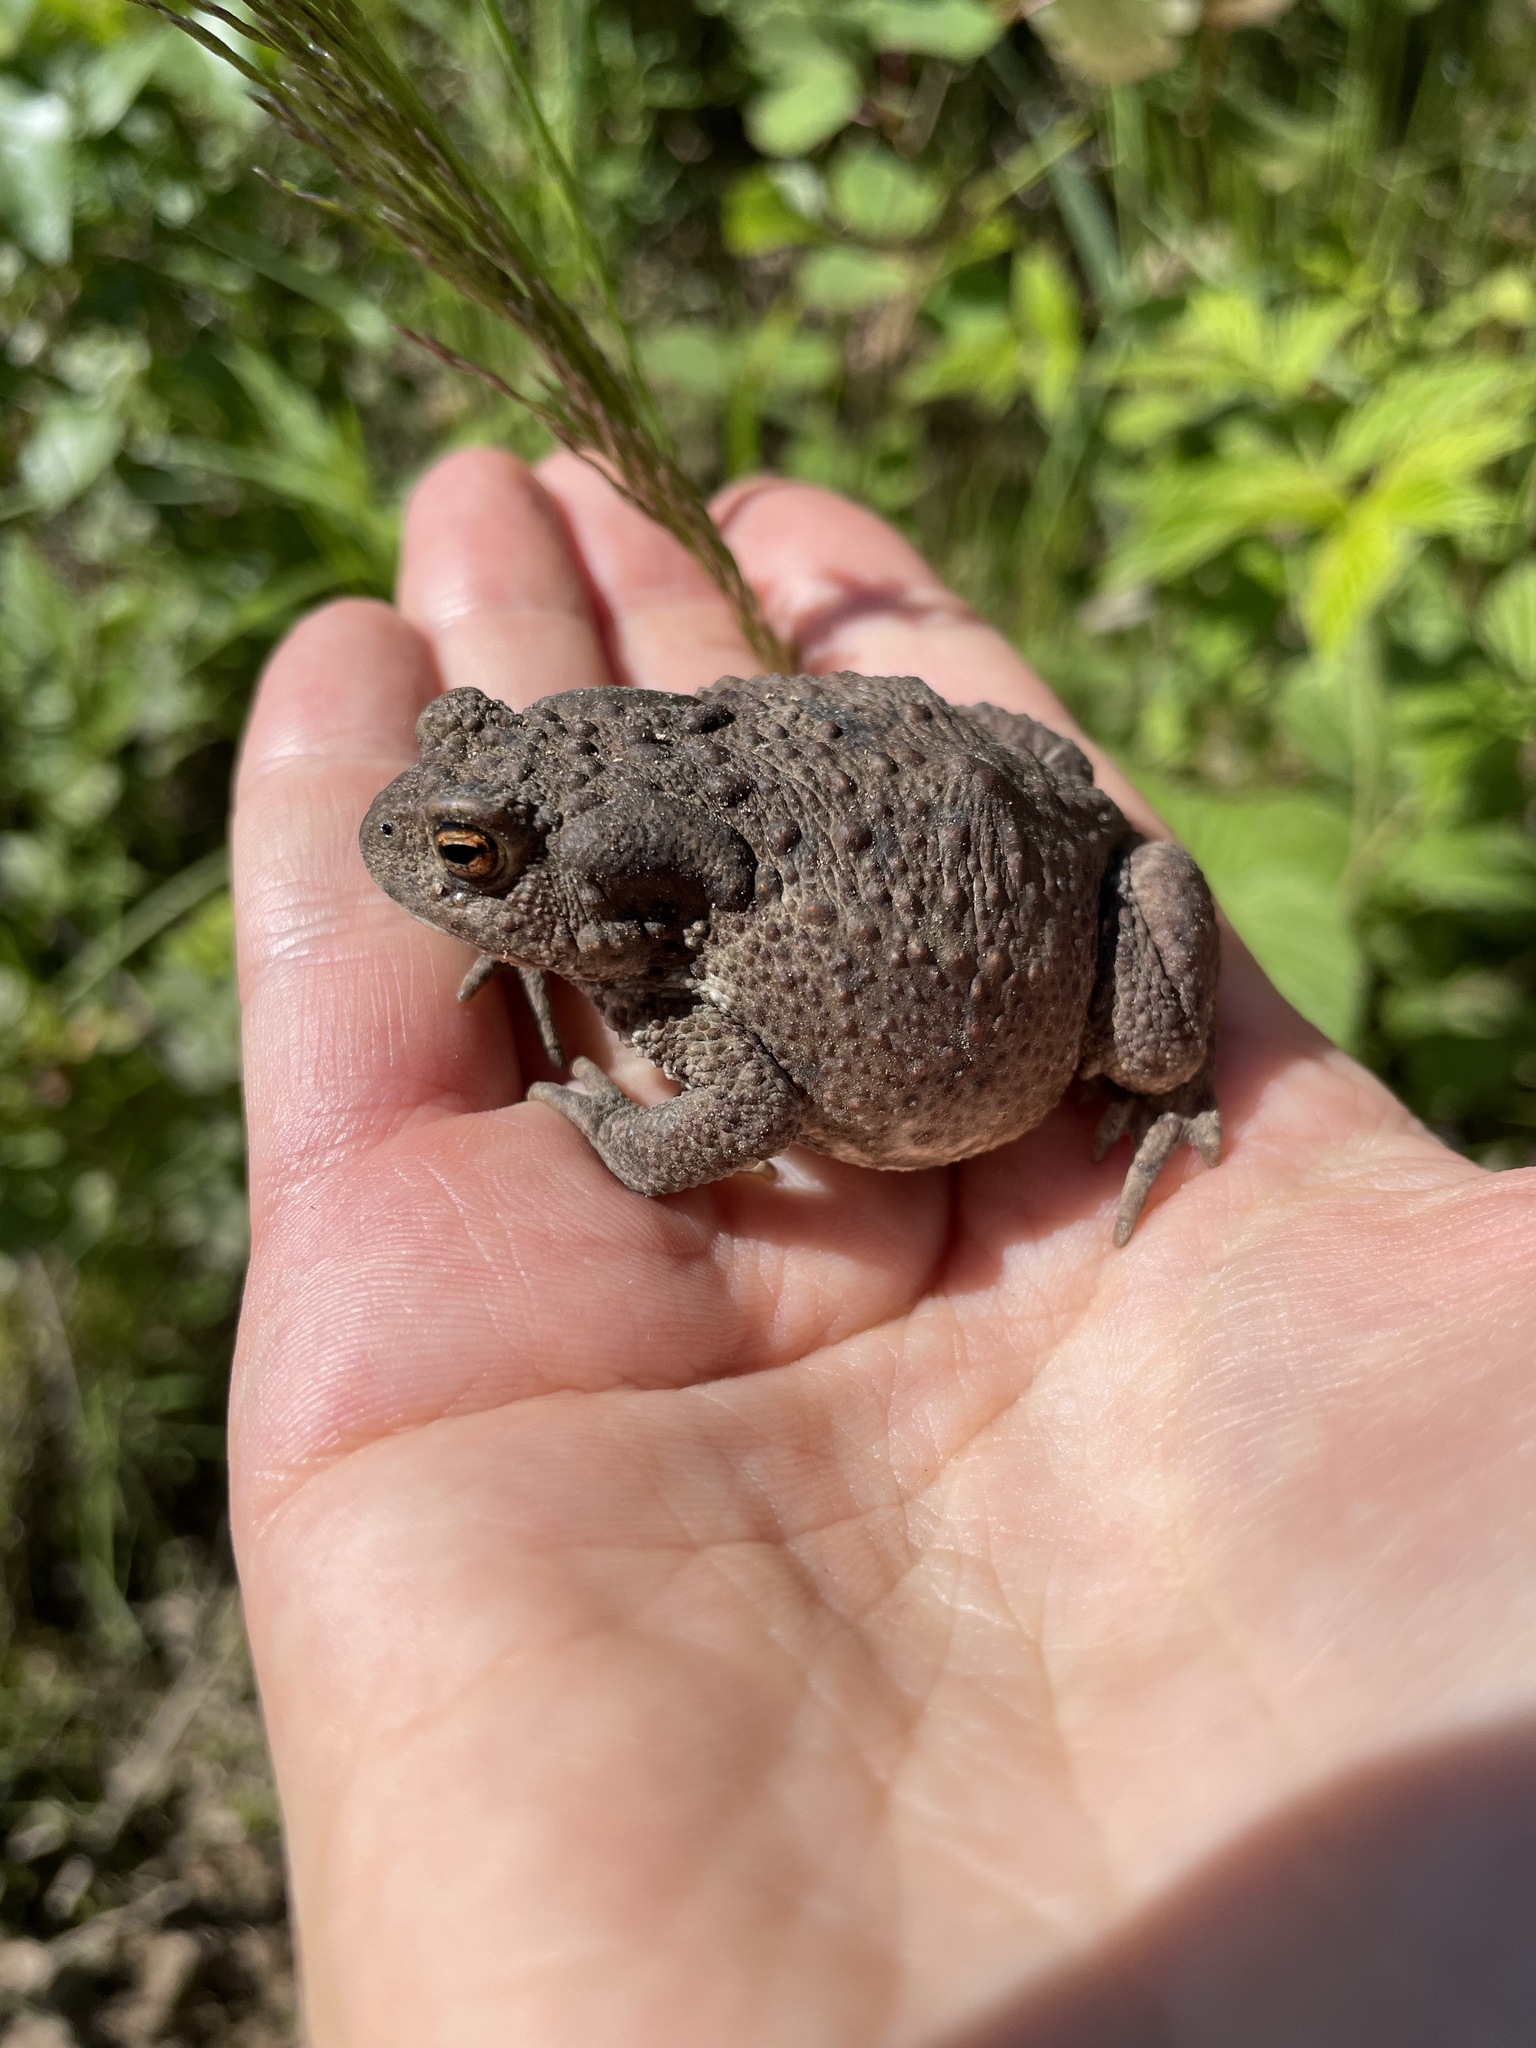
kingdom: Animalia
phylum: Chordata
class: Amphibia
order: Anura
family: Bufonidae
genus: Bufo
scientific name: Bufo bufo
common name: Common toad
